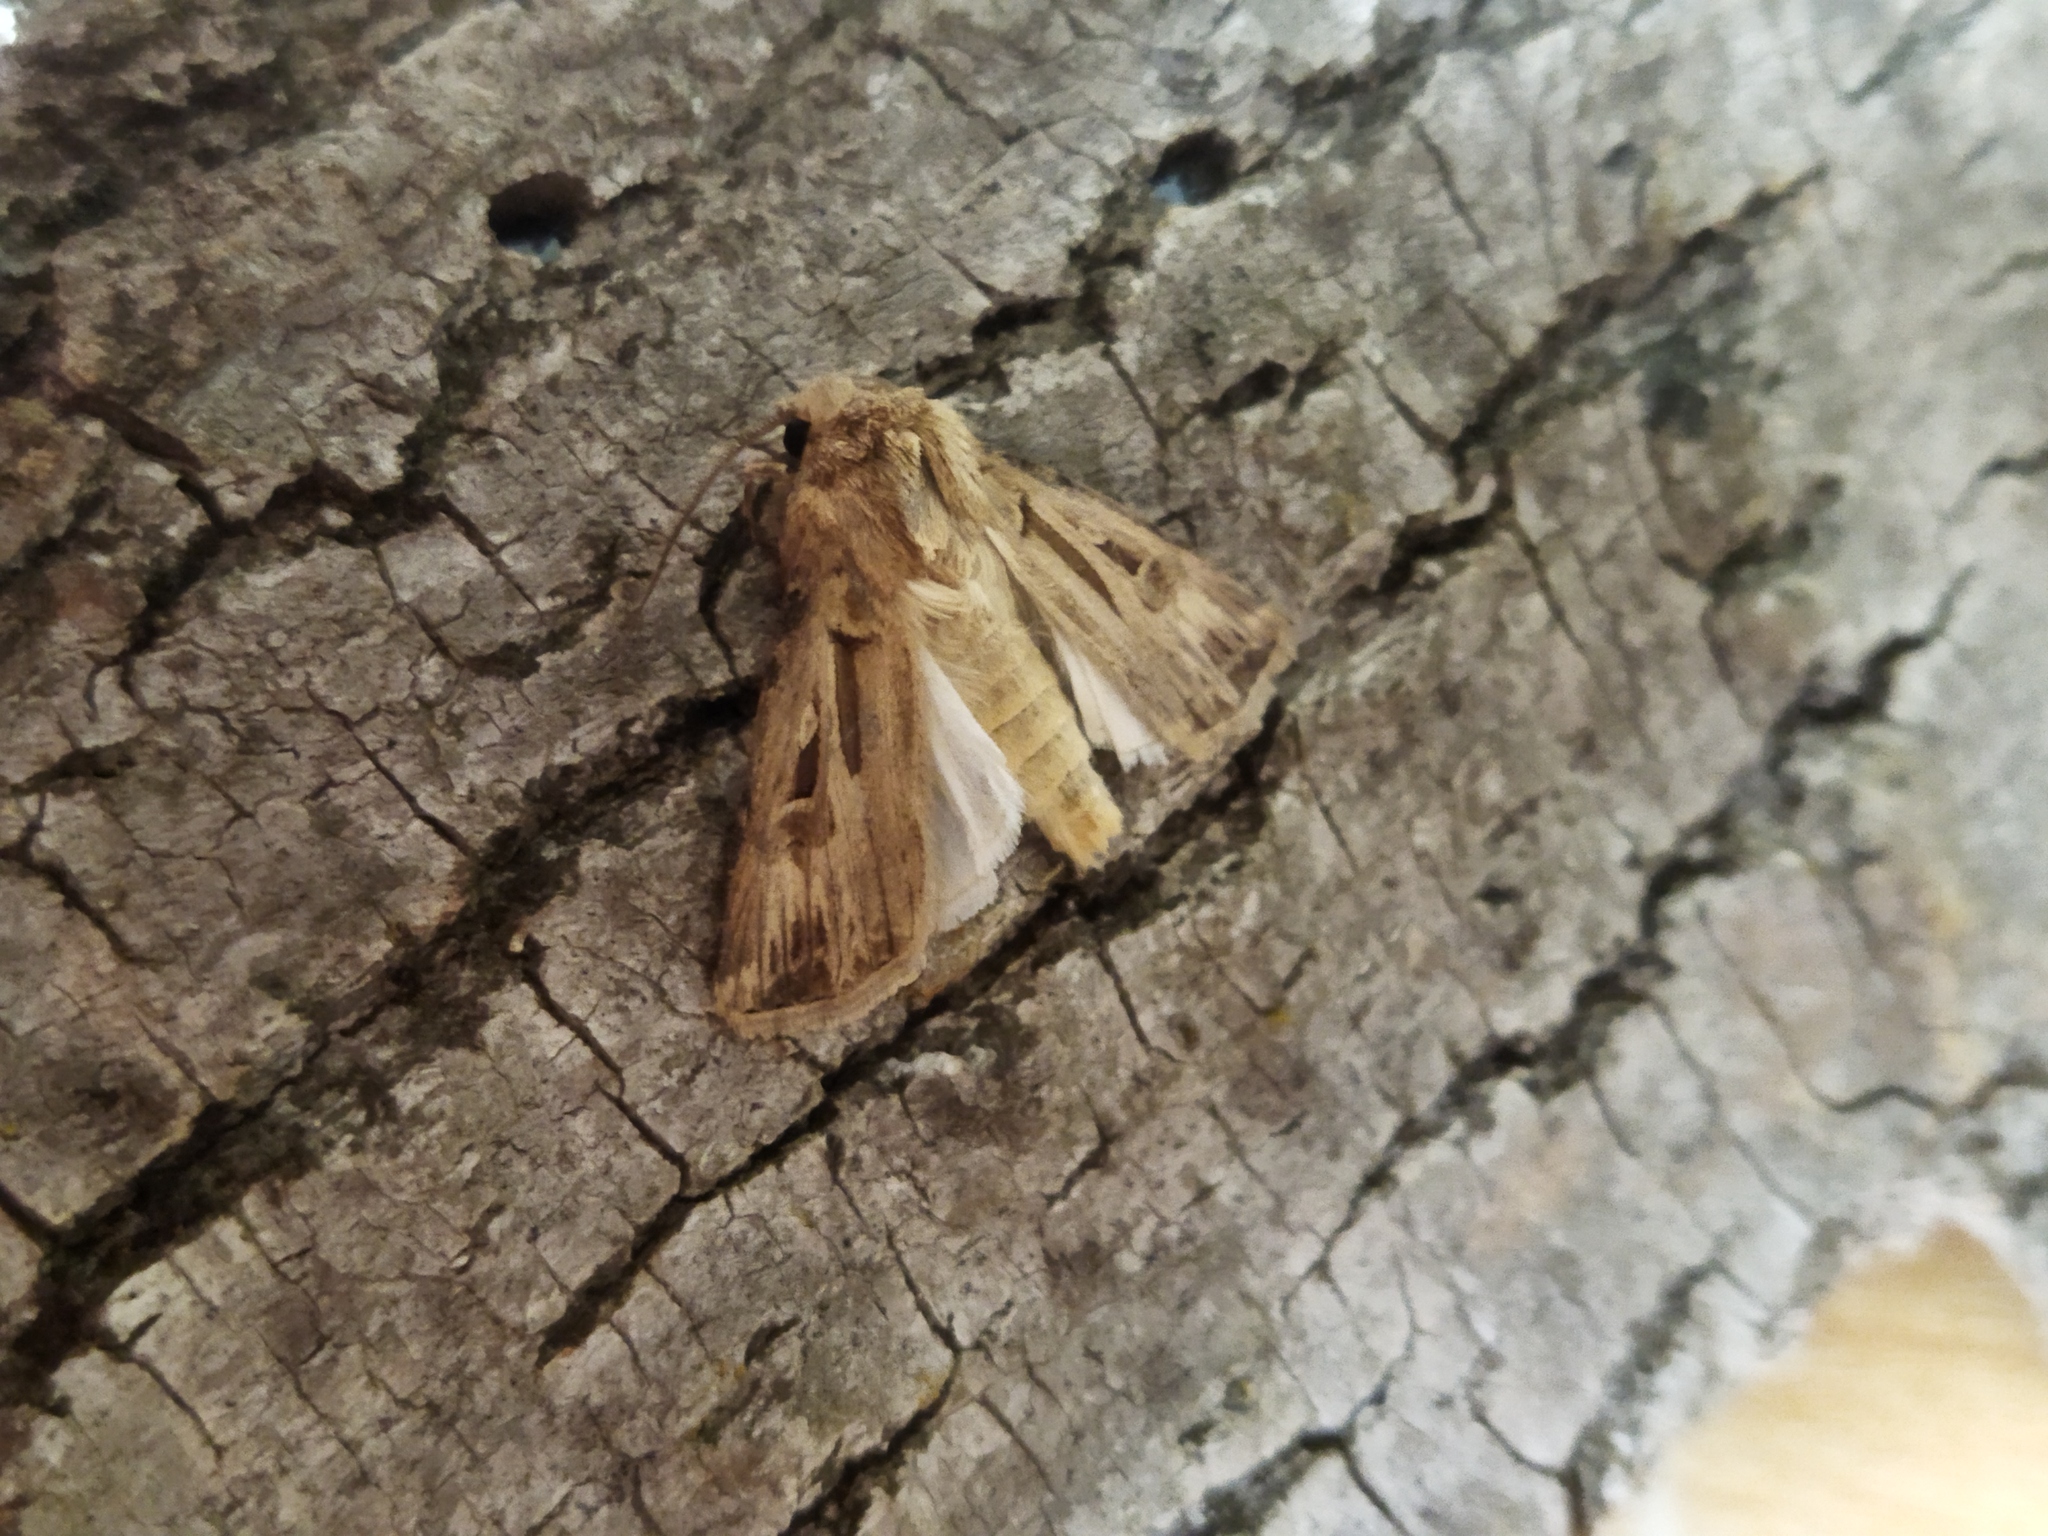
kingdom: Animalia
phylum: Arthropoda
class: Insecta
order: Lepidoptera
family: Noctuidae
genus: Agrotis
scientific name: Agrotis
